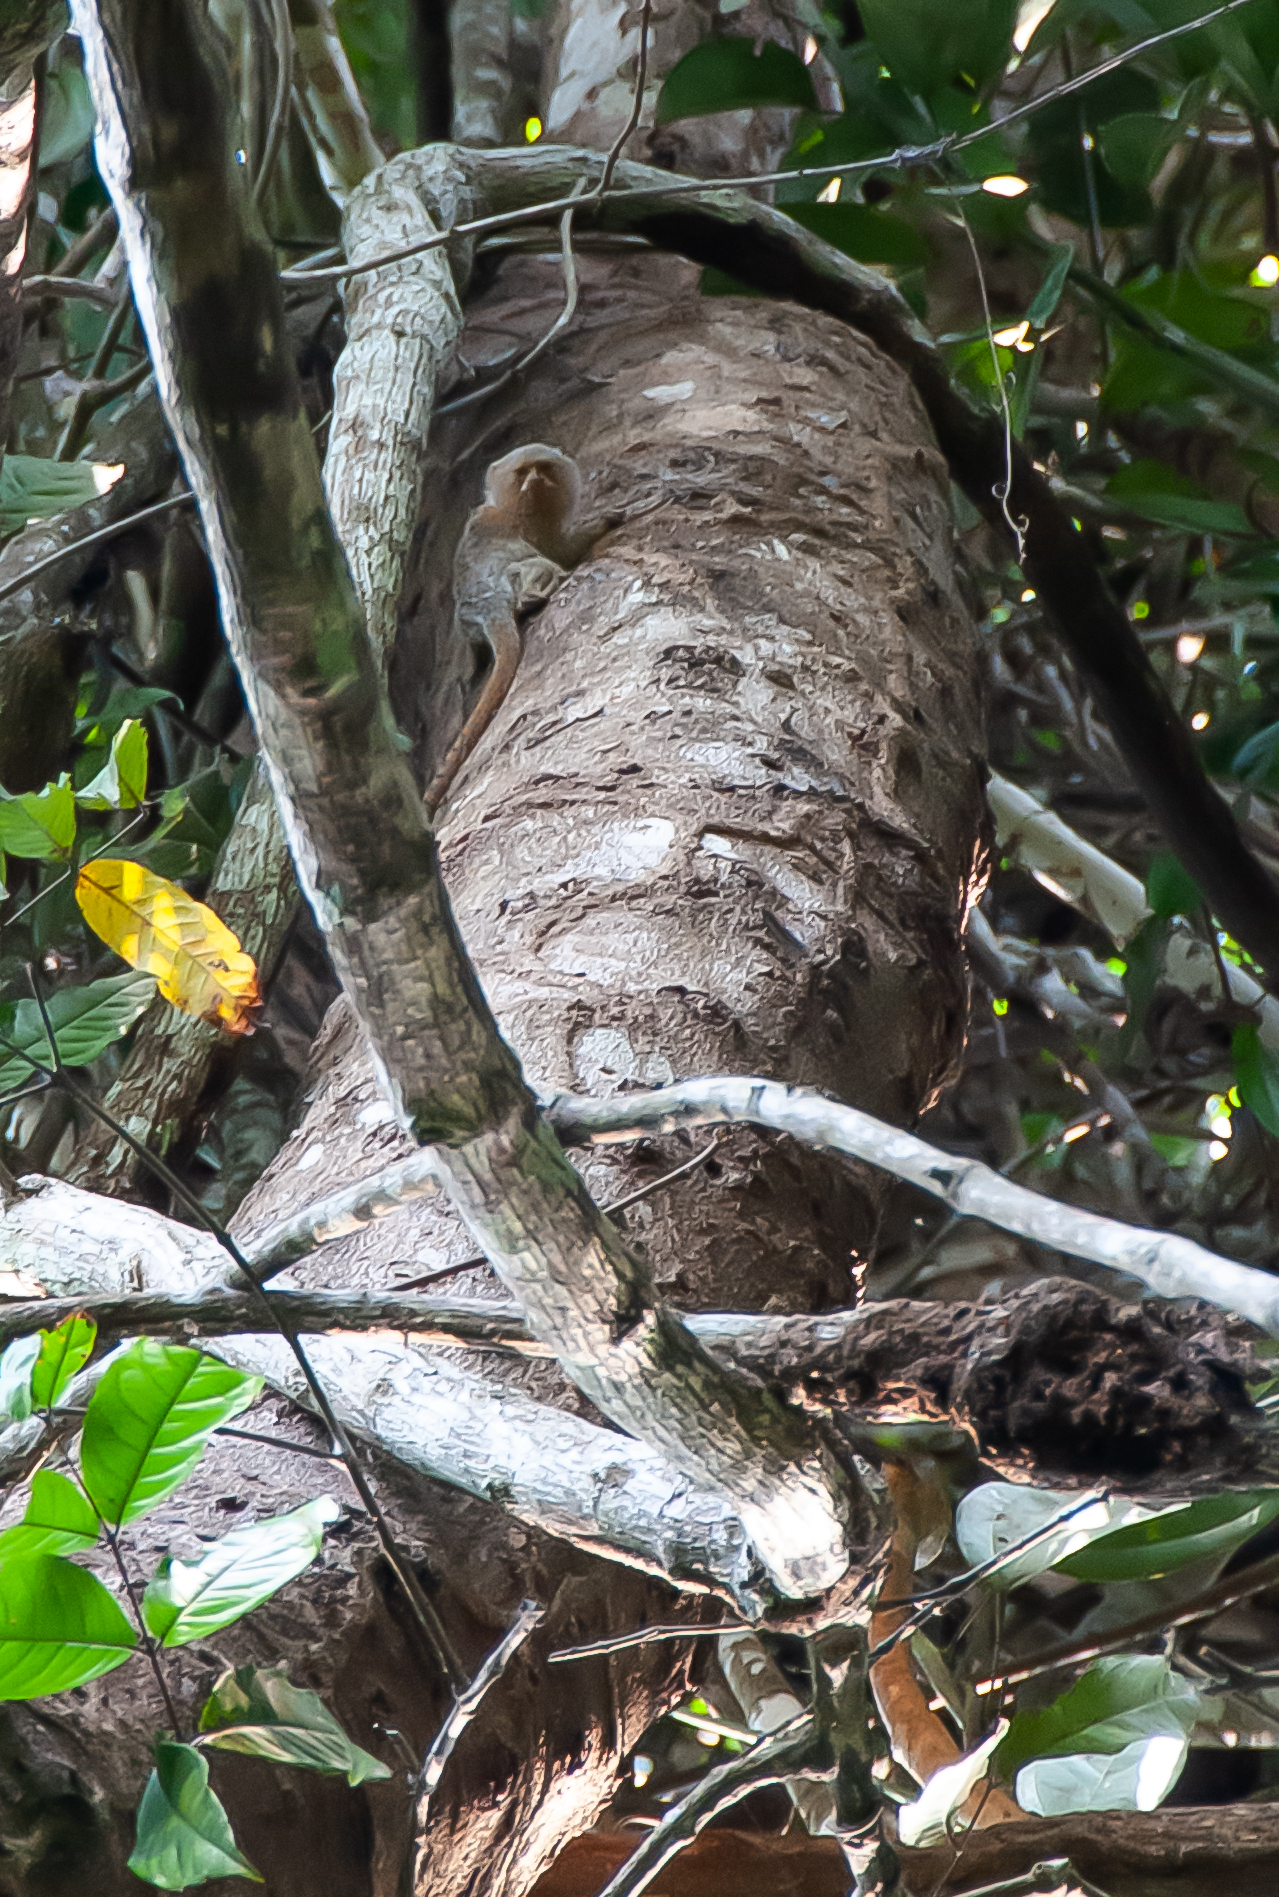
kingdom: Animalia
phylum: Chordata
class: Mammalia
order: Primates
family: Callitrichidae
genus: Cebuella
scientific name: Cebuella niveiventris
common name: Eastern pygmy marmoset
